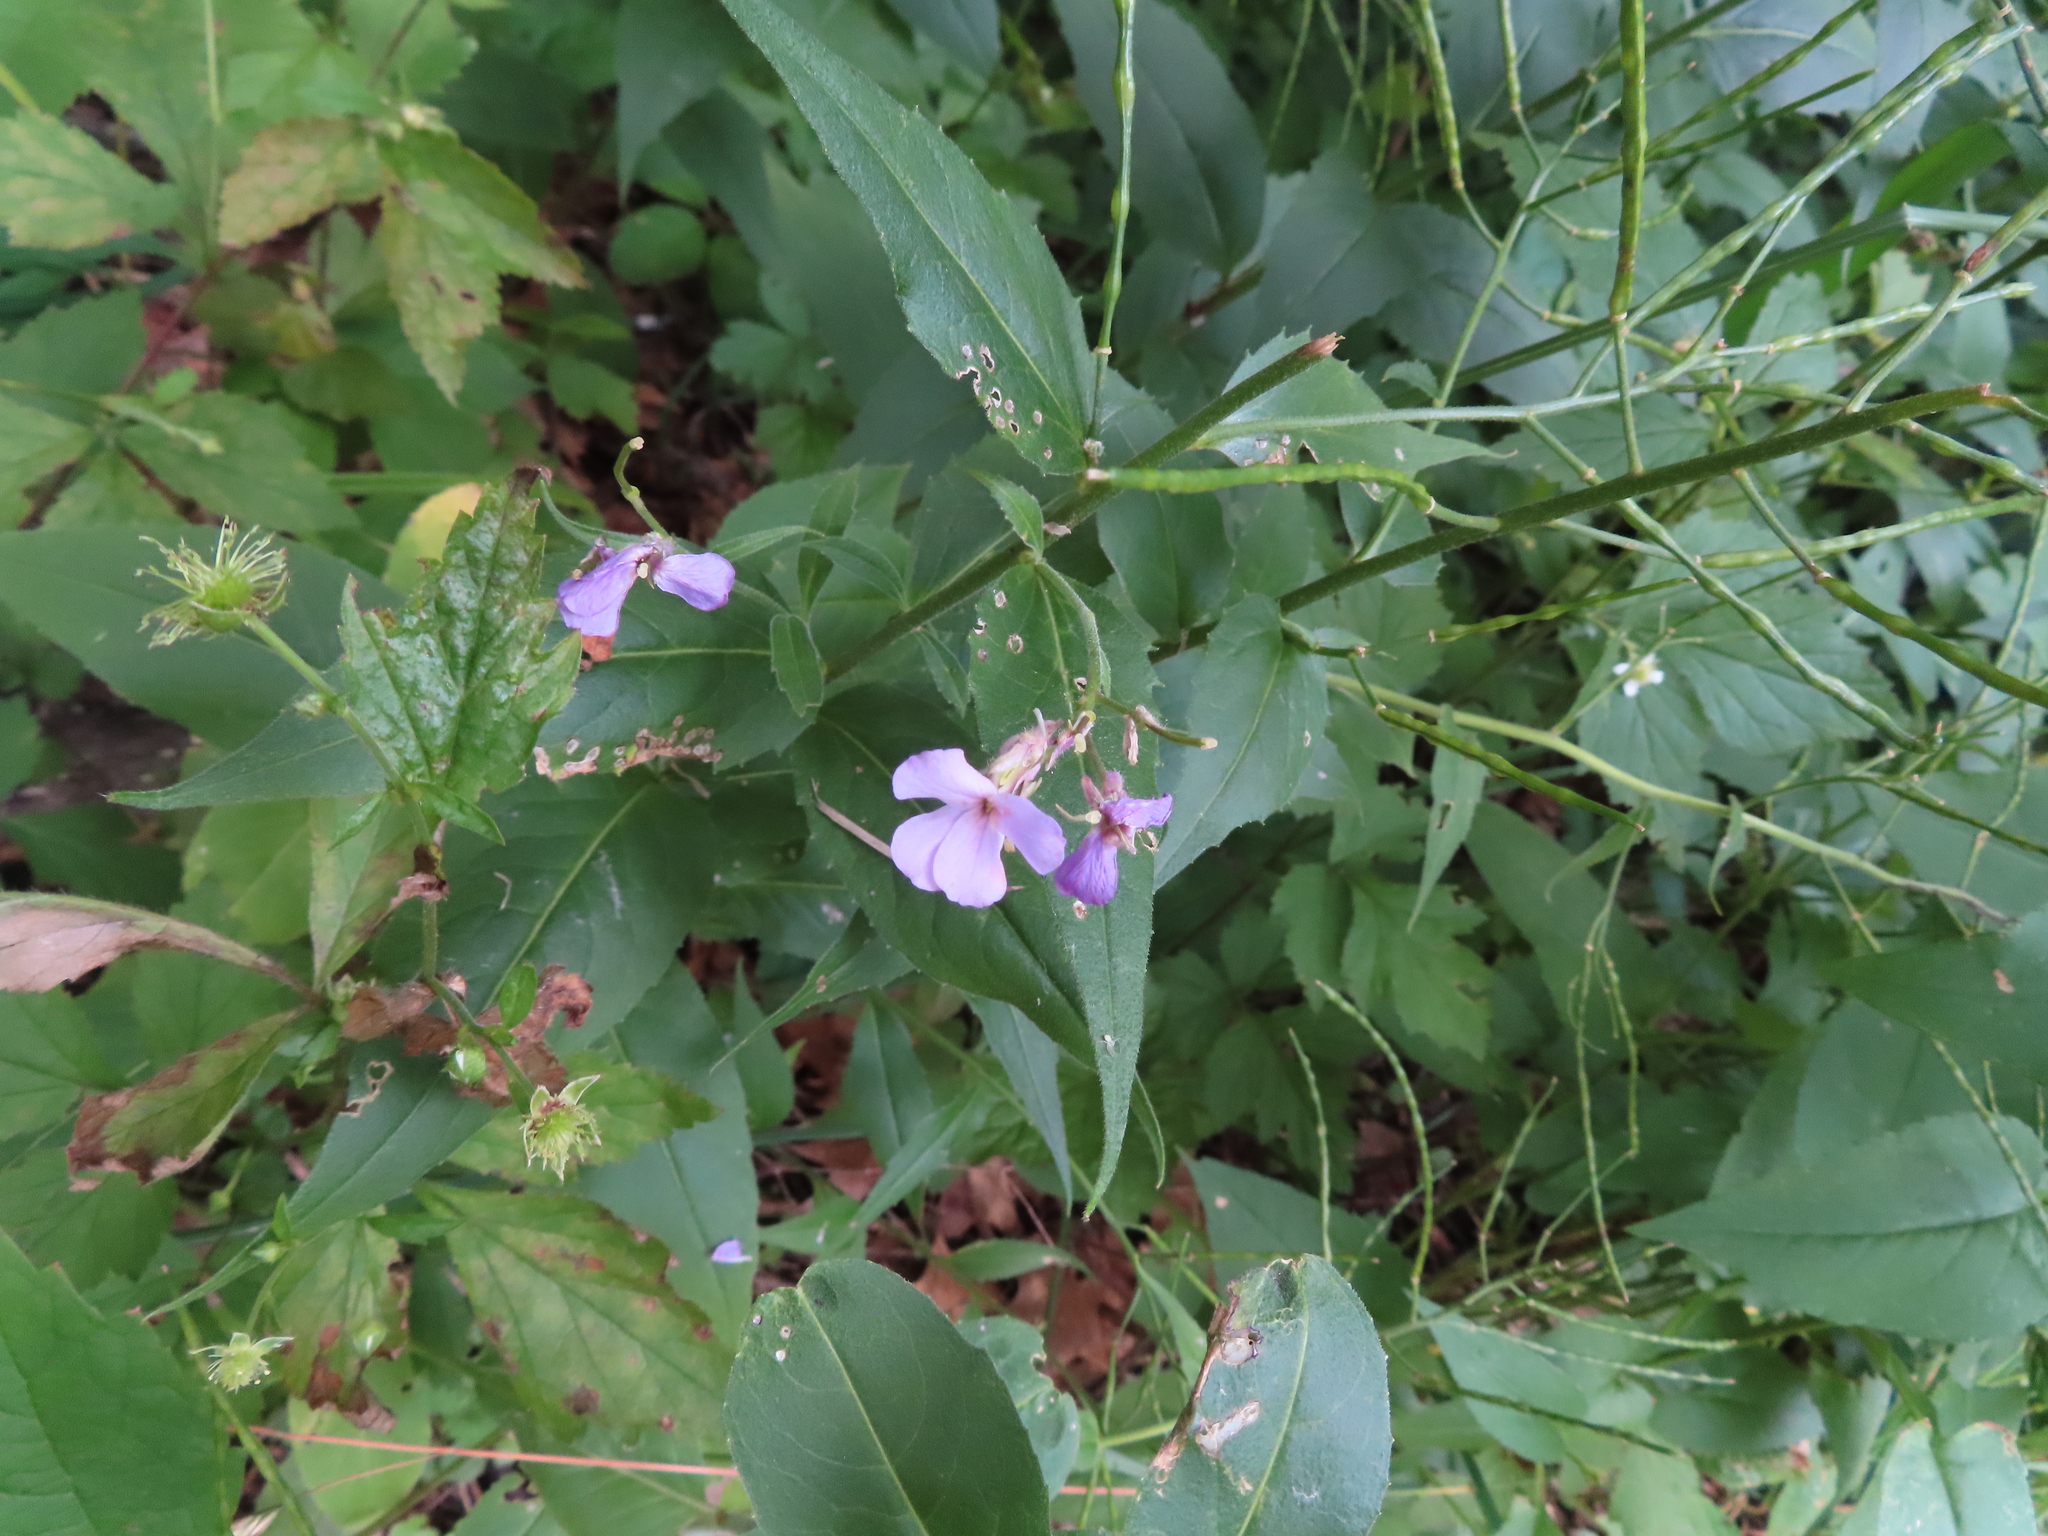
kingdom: Plantae
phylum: Tracheophyta
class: Magnoliopsida
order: Brassicales
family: Brassicaceae
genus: Hesperis
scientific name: Hesperis matronalis
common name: Dame's-violet
